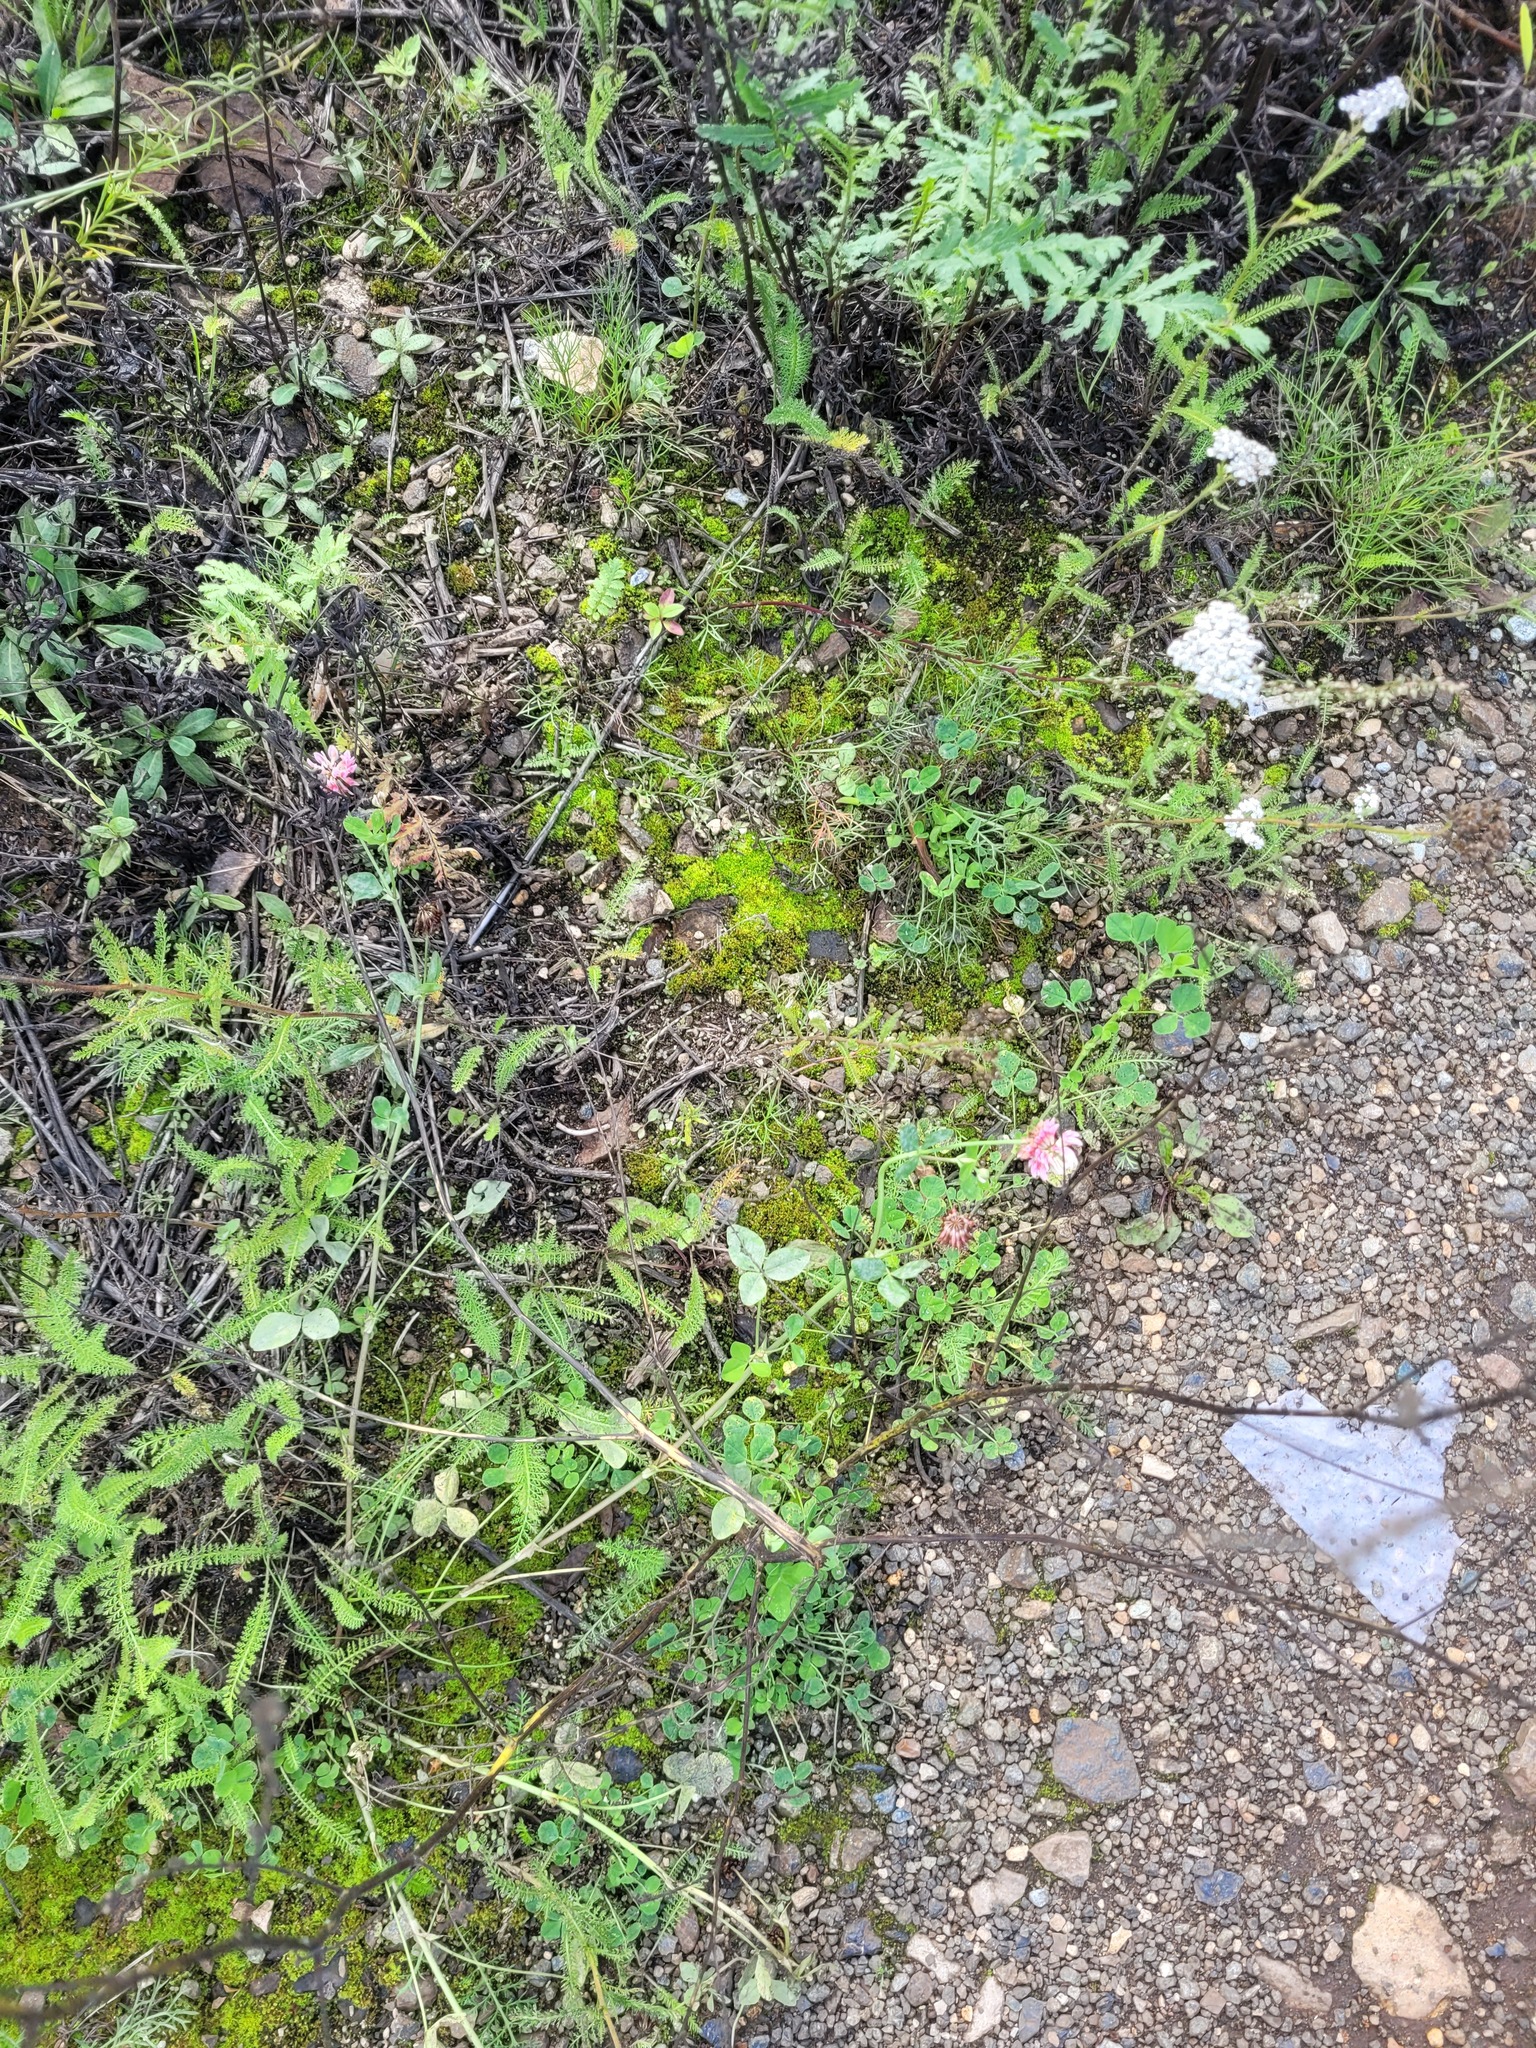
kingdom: Plantae
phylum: Tracheophyta
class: Magnoliopsida
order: Fabales
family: Fabaceae
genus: Trifolium
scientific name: Trifolium hybridum
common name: Alsike clover
